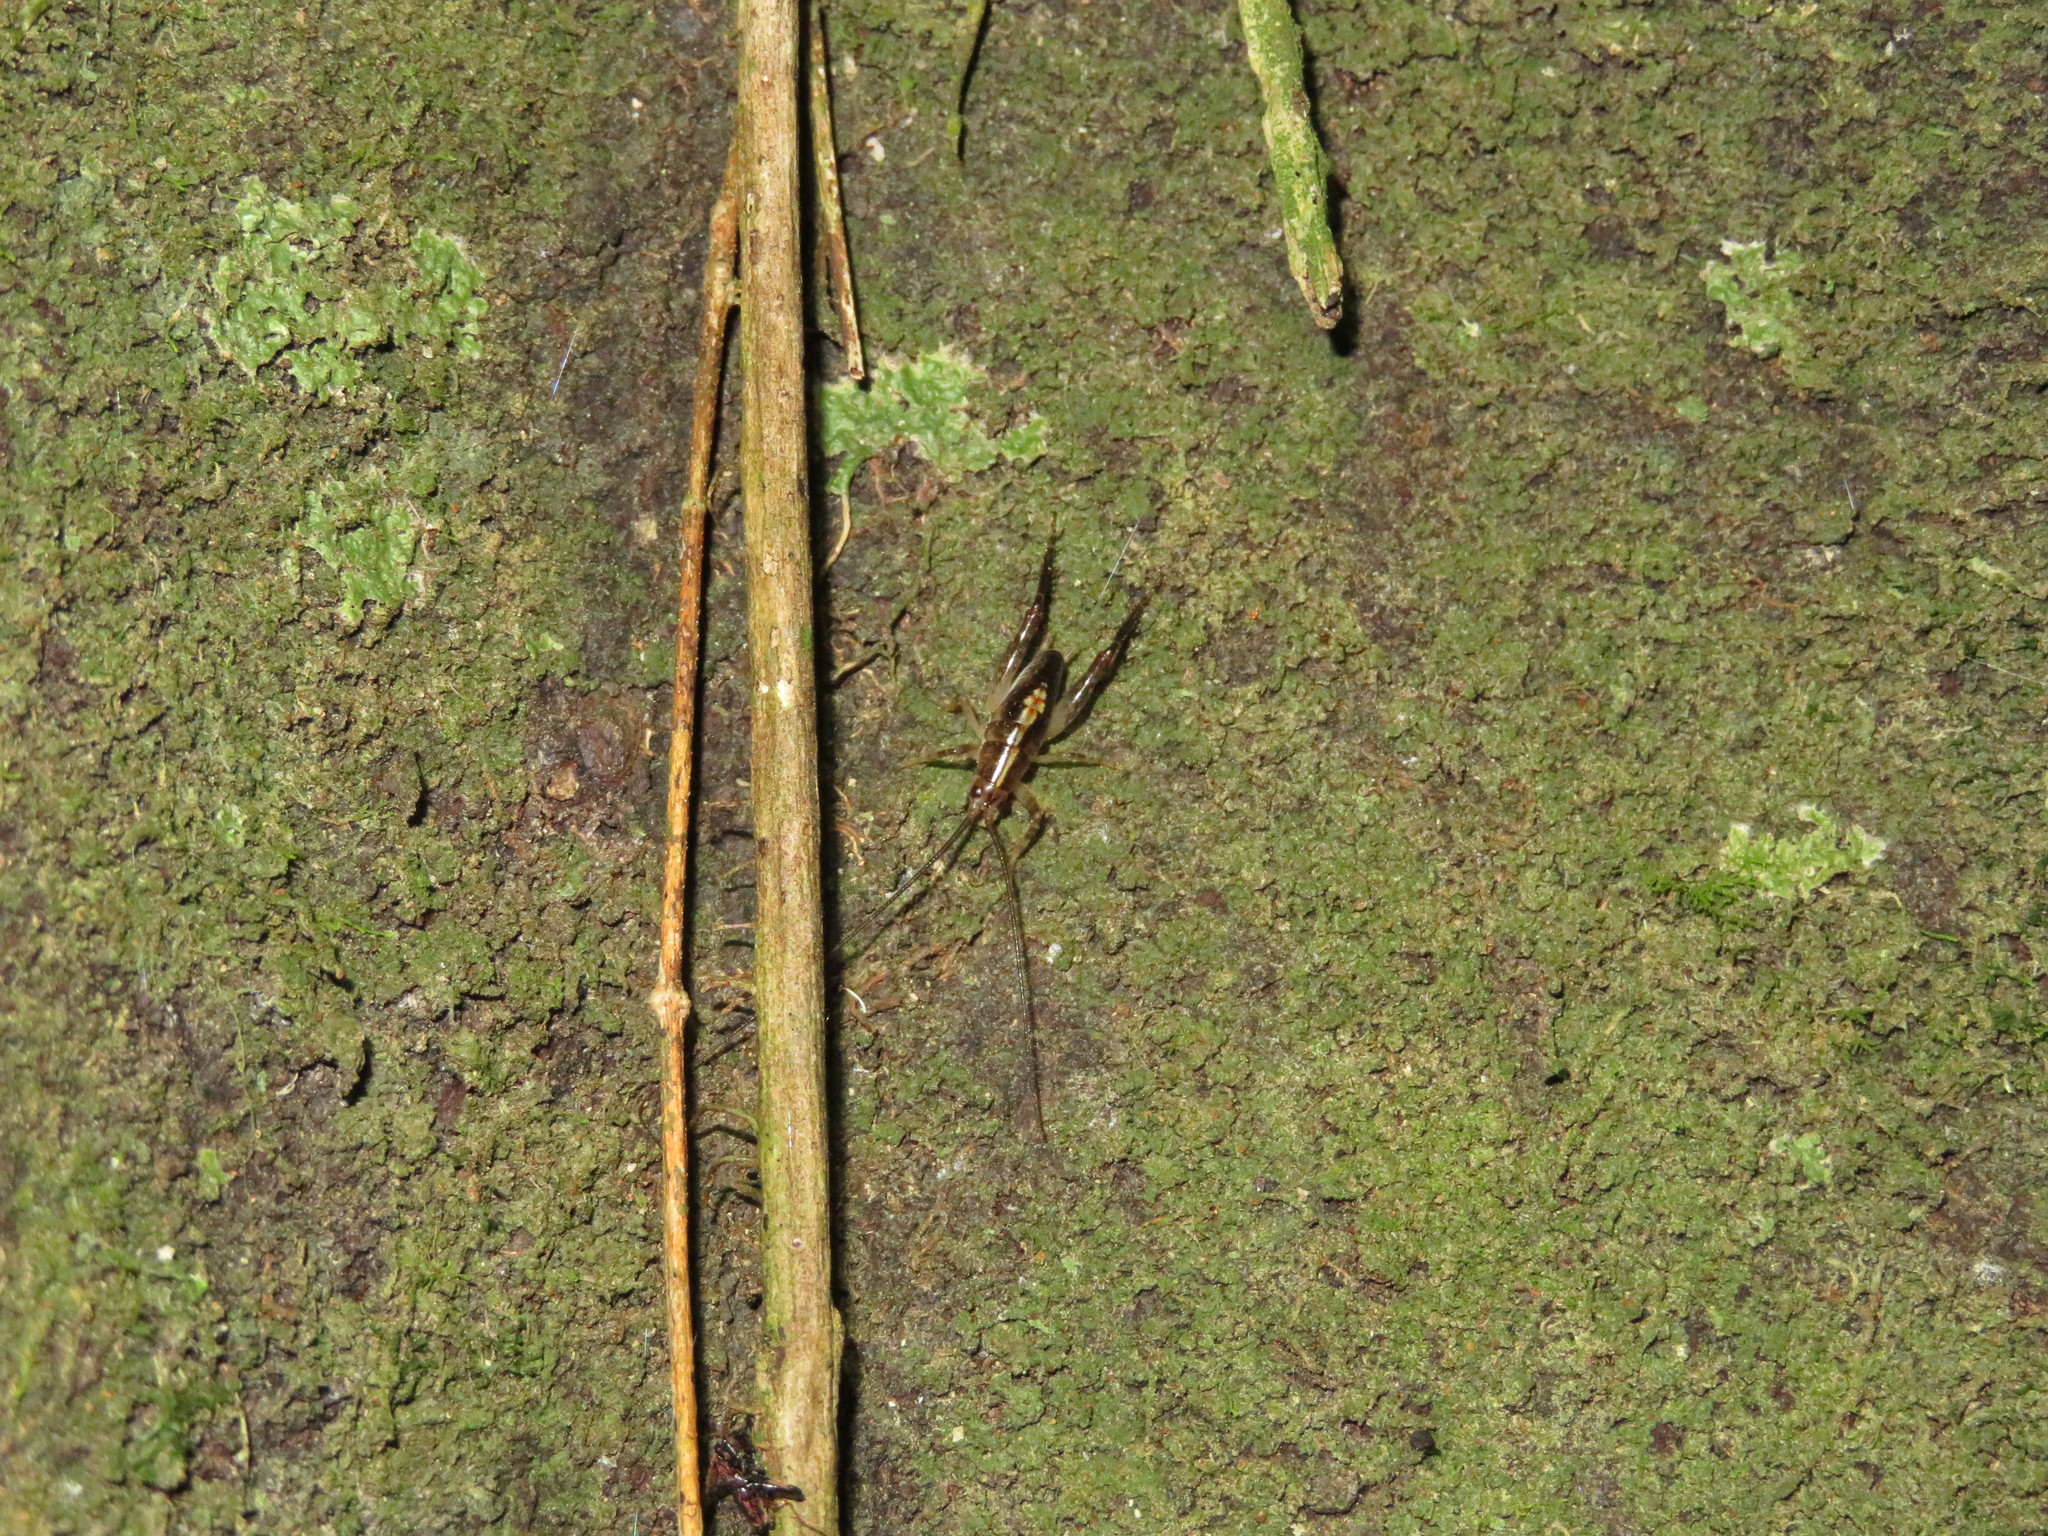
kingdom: Animalia
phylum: Arthropoda
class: Insecta
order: Orthoptera
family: Rhaphidophoridae
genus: Talitropsis
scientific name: Talitropsis sedilloti
